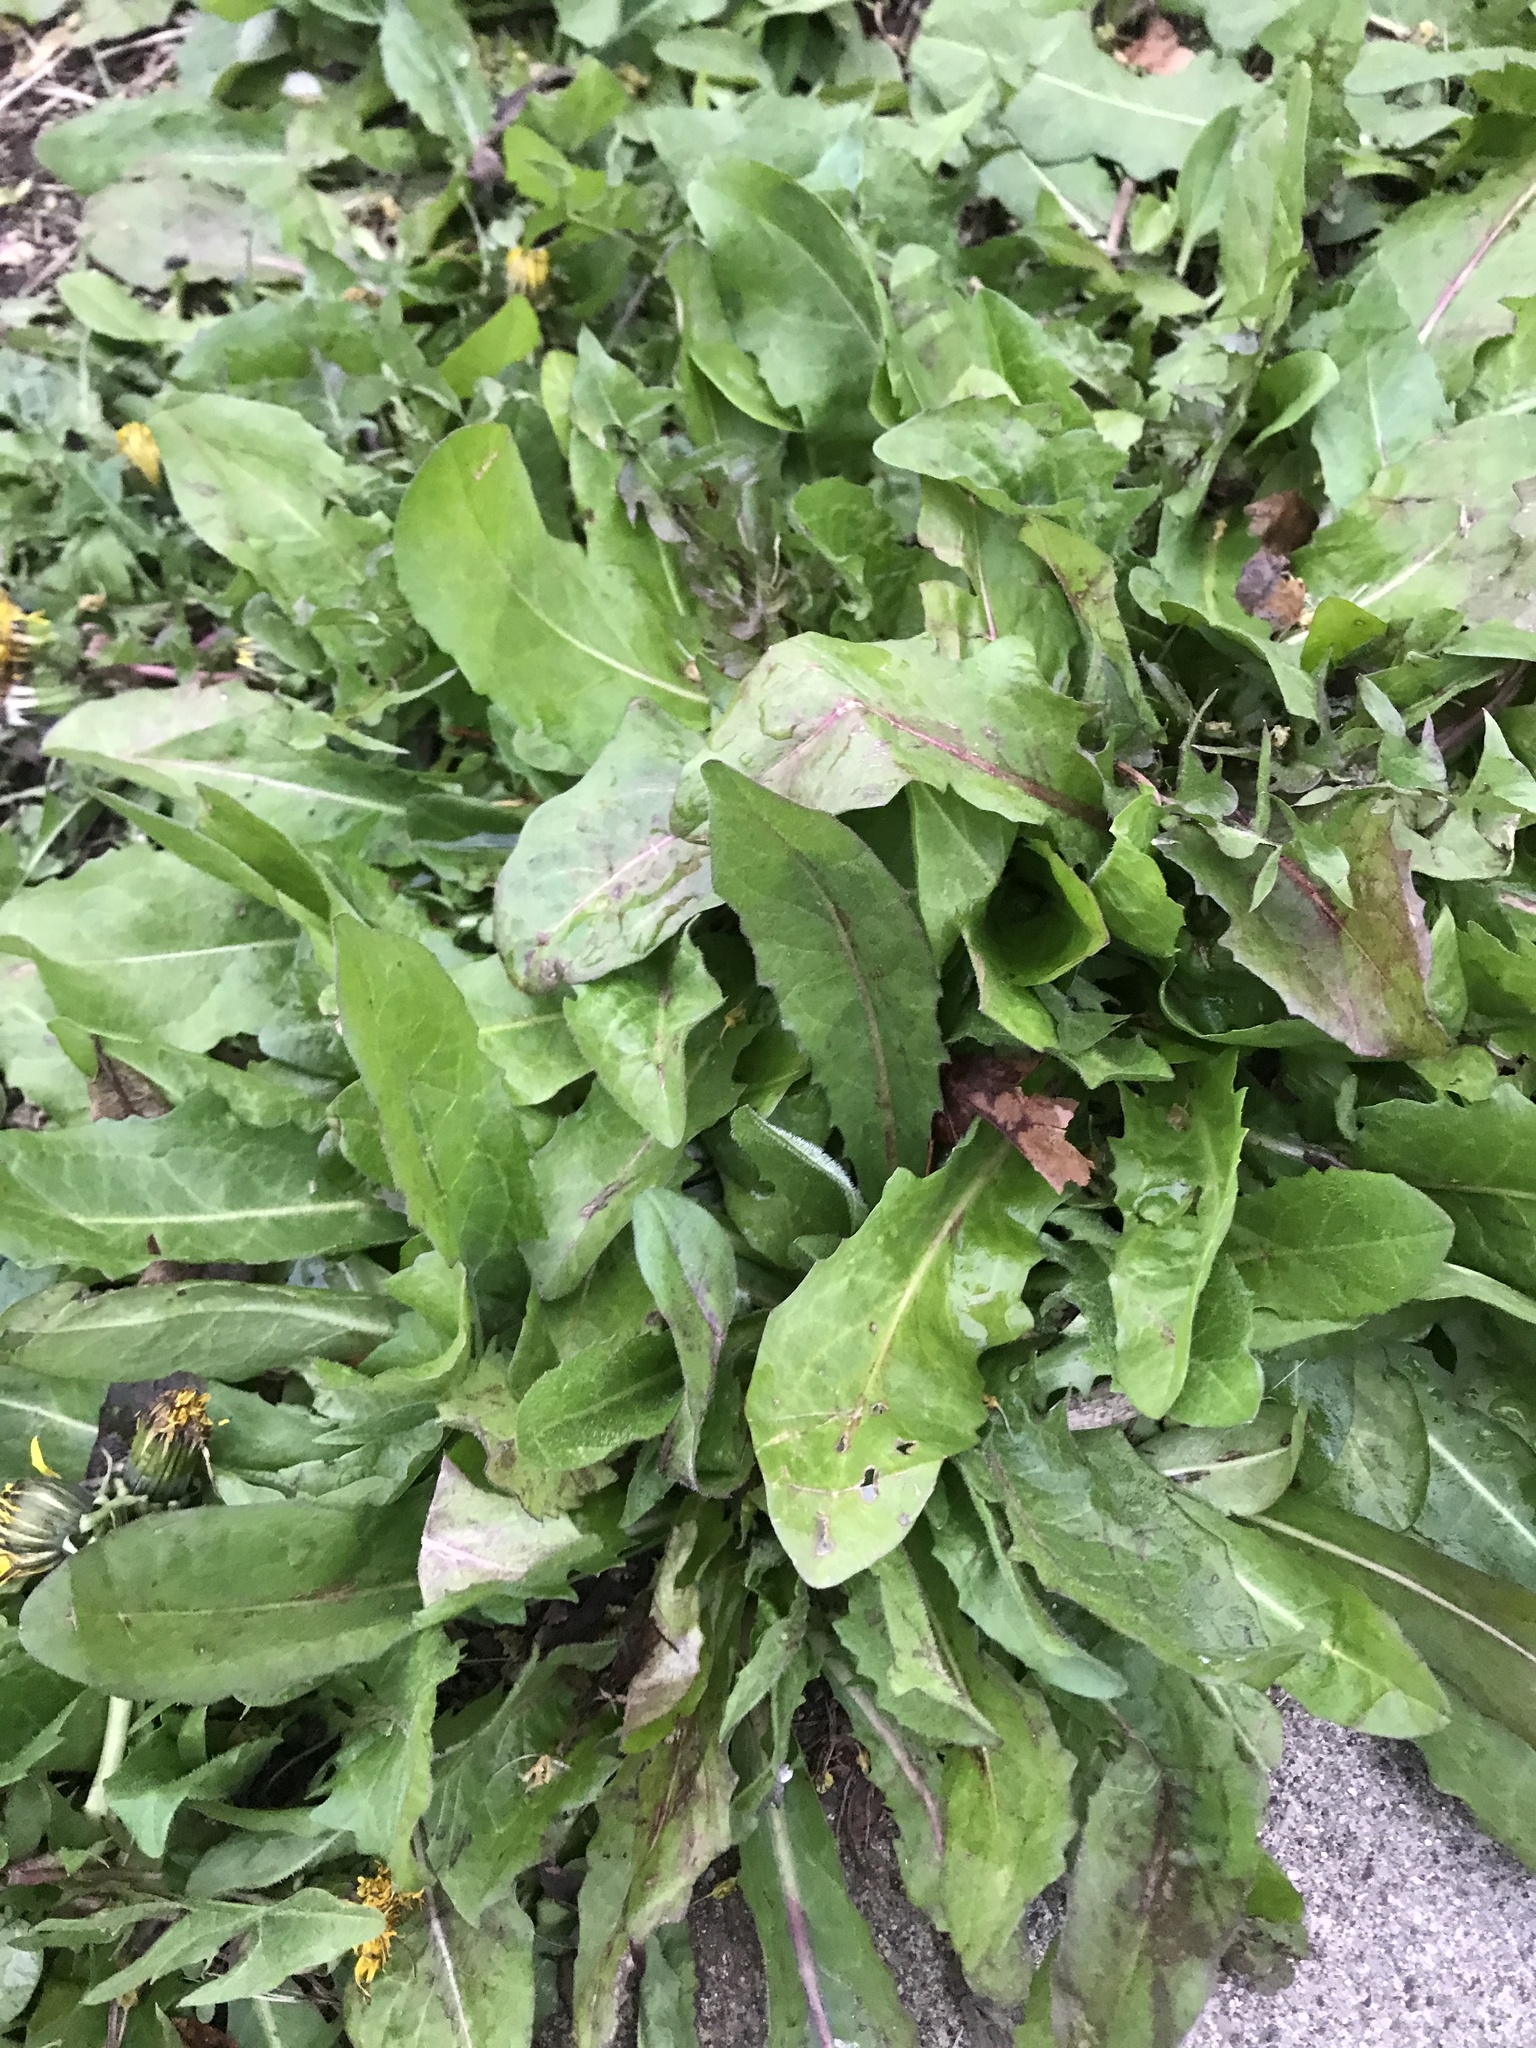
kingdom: Plantae
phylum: Tracheophyta
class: Magnoliopsida
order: Asterales
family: Asteraceae
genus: Taraxacum
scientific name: Taraxacum officinale
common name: Common dandelion
